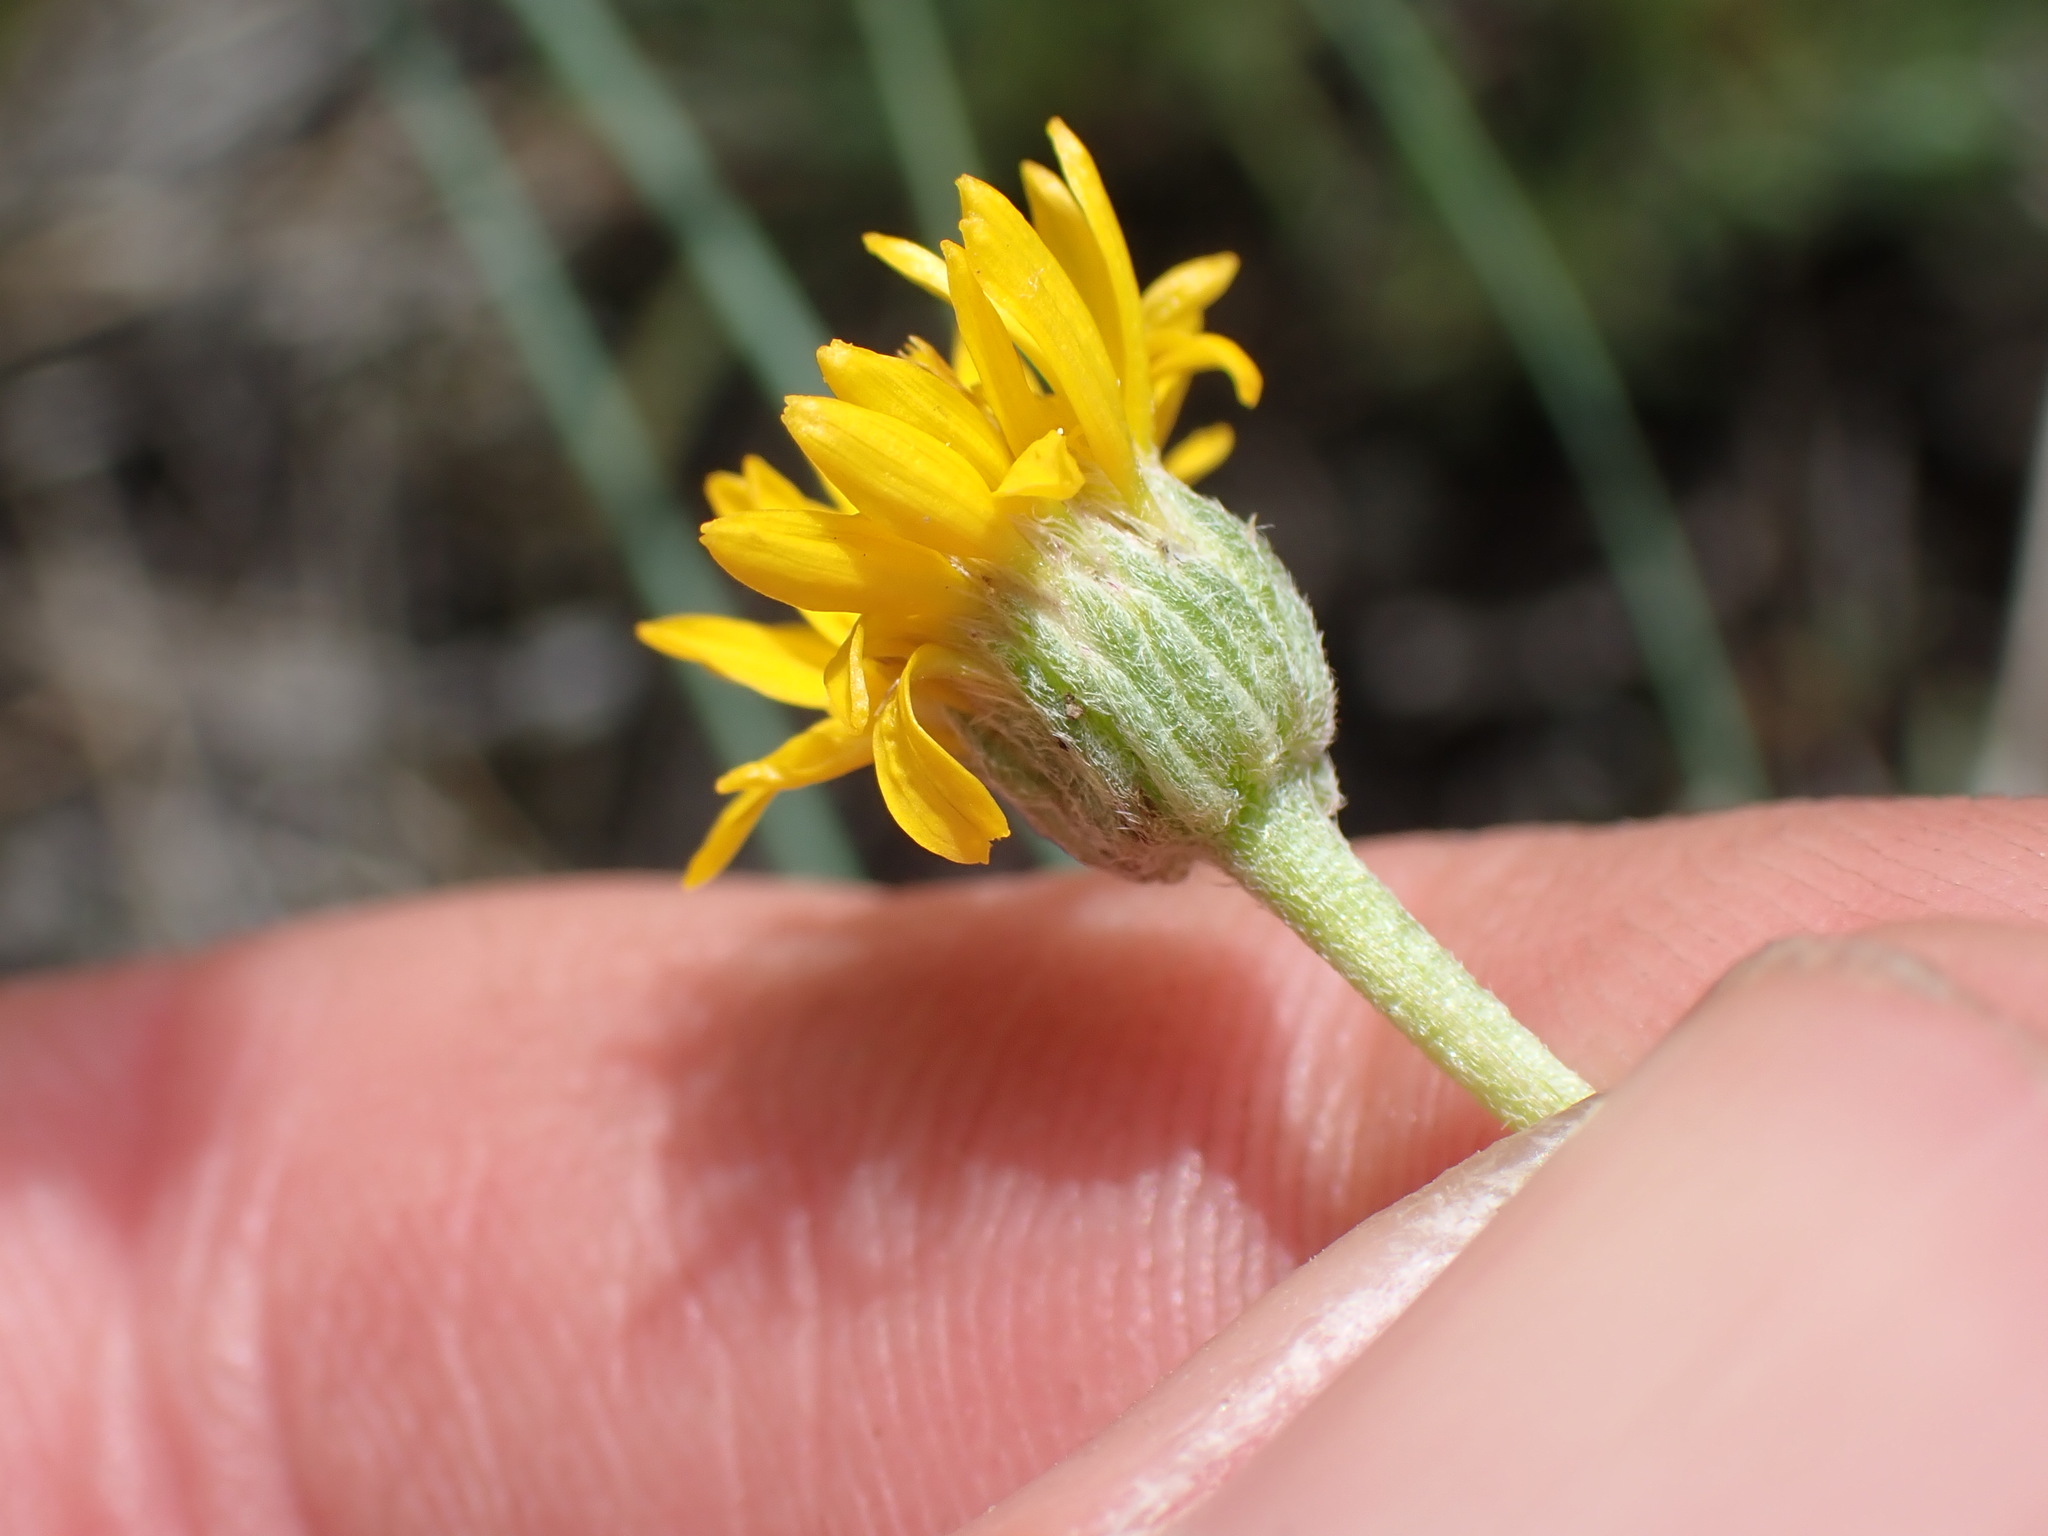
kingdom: Plantae
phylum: Tracheophyta
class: Magnoliopsida
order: Asterales
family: Asteraceae
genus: Erigeron
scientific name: Erigeron linearis
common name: Desert yellow fleabane
